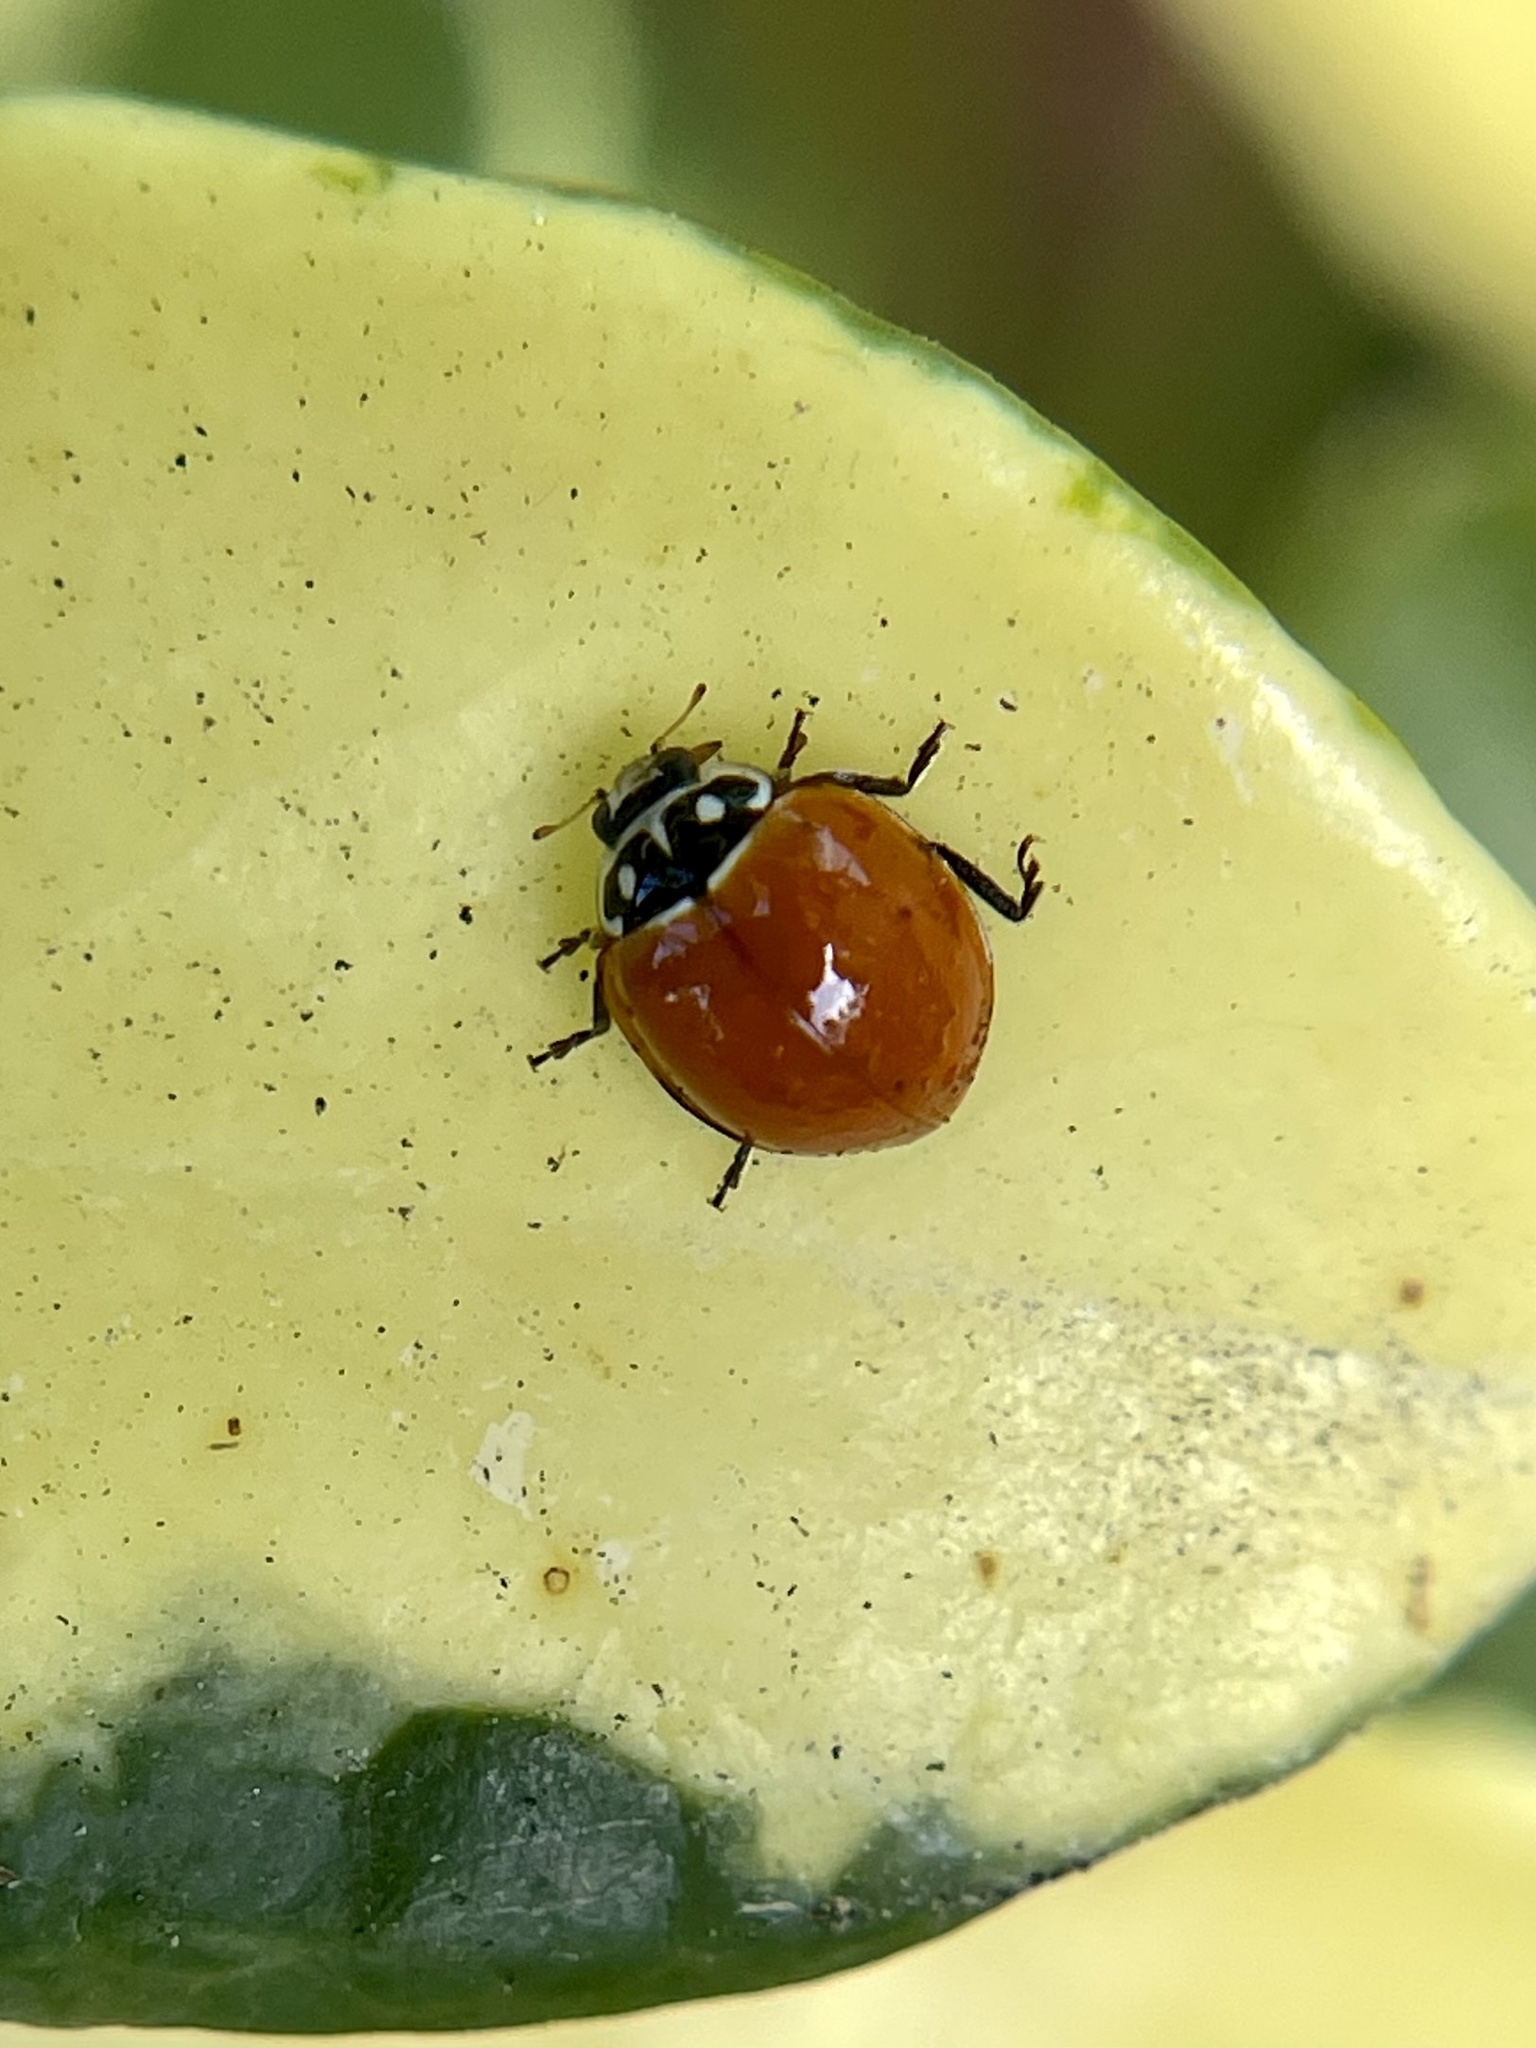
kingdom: Animalia
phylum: Arthropoda
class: Insecta
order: Coleoptera
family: Coccinellidae
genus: Cycloneda
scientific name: Cycloneda sanguinea
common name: Ladybird beetle
